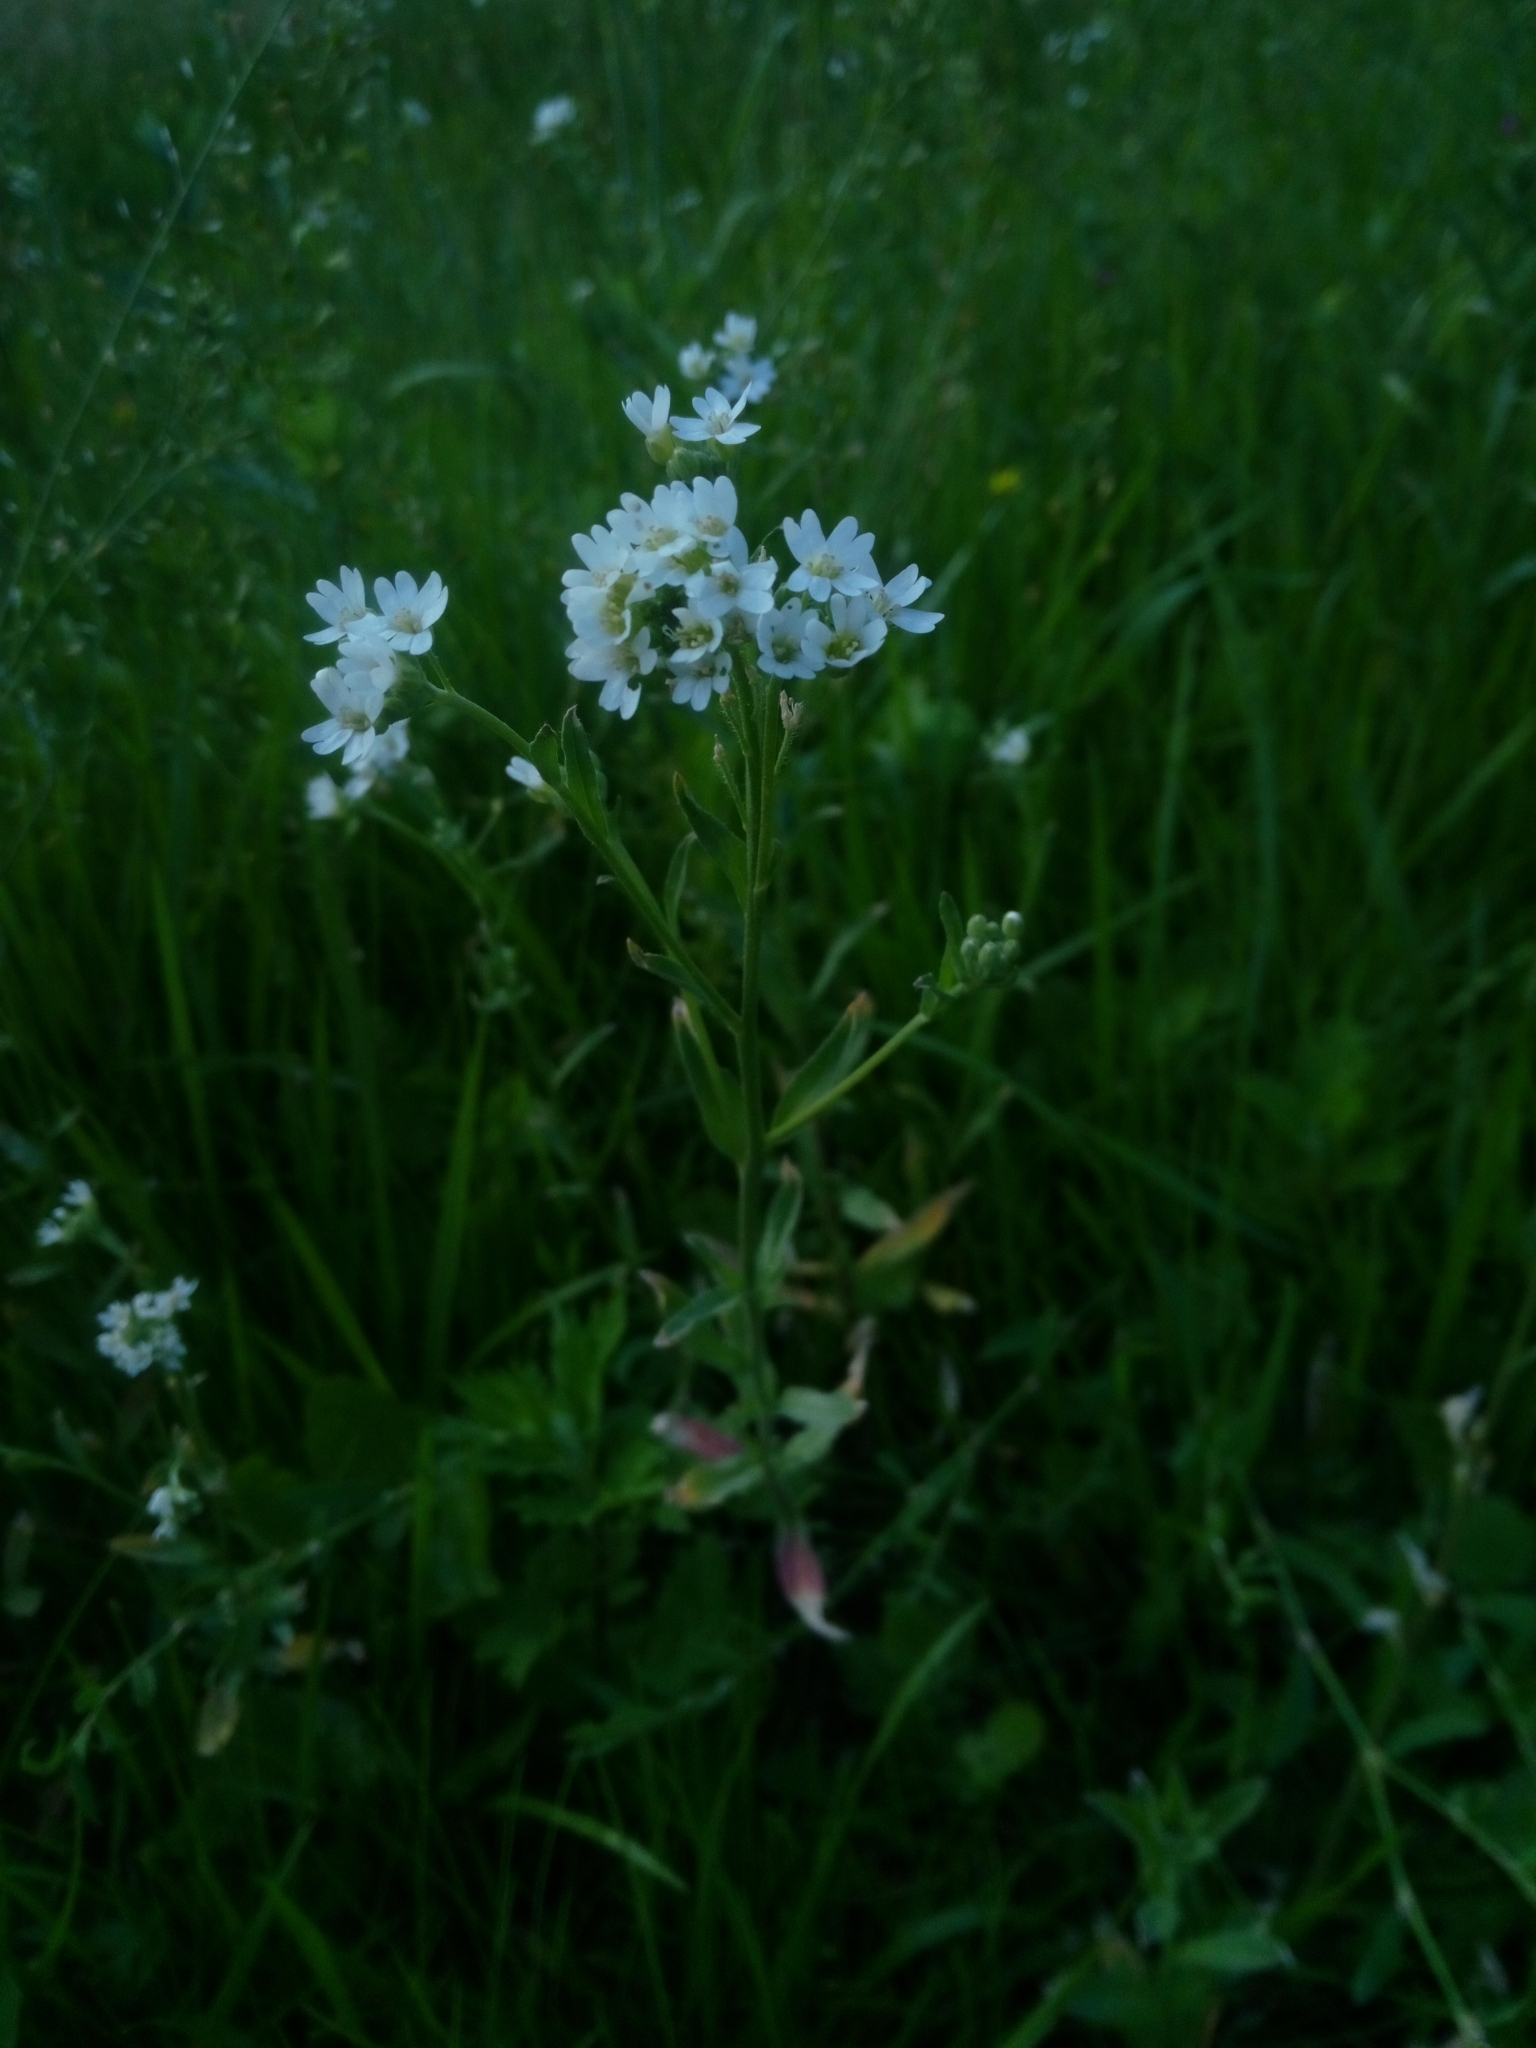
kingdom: Plantae
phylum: Tracheophyta
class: Magnoliopsida
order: Brassicales
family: Brassicaceae
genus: Berteroa
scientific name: Berteroa incana
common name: Hoary alison
